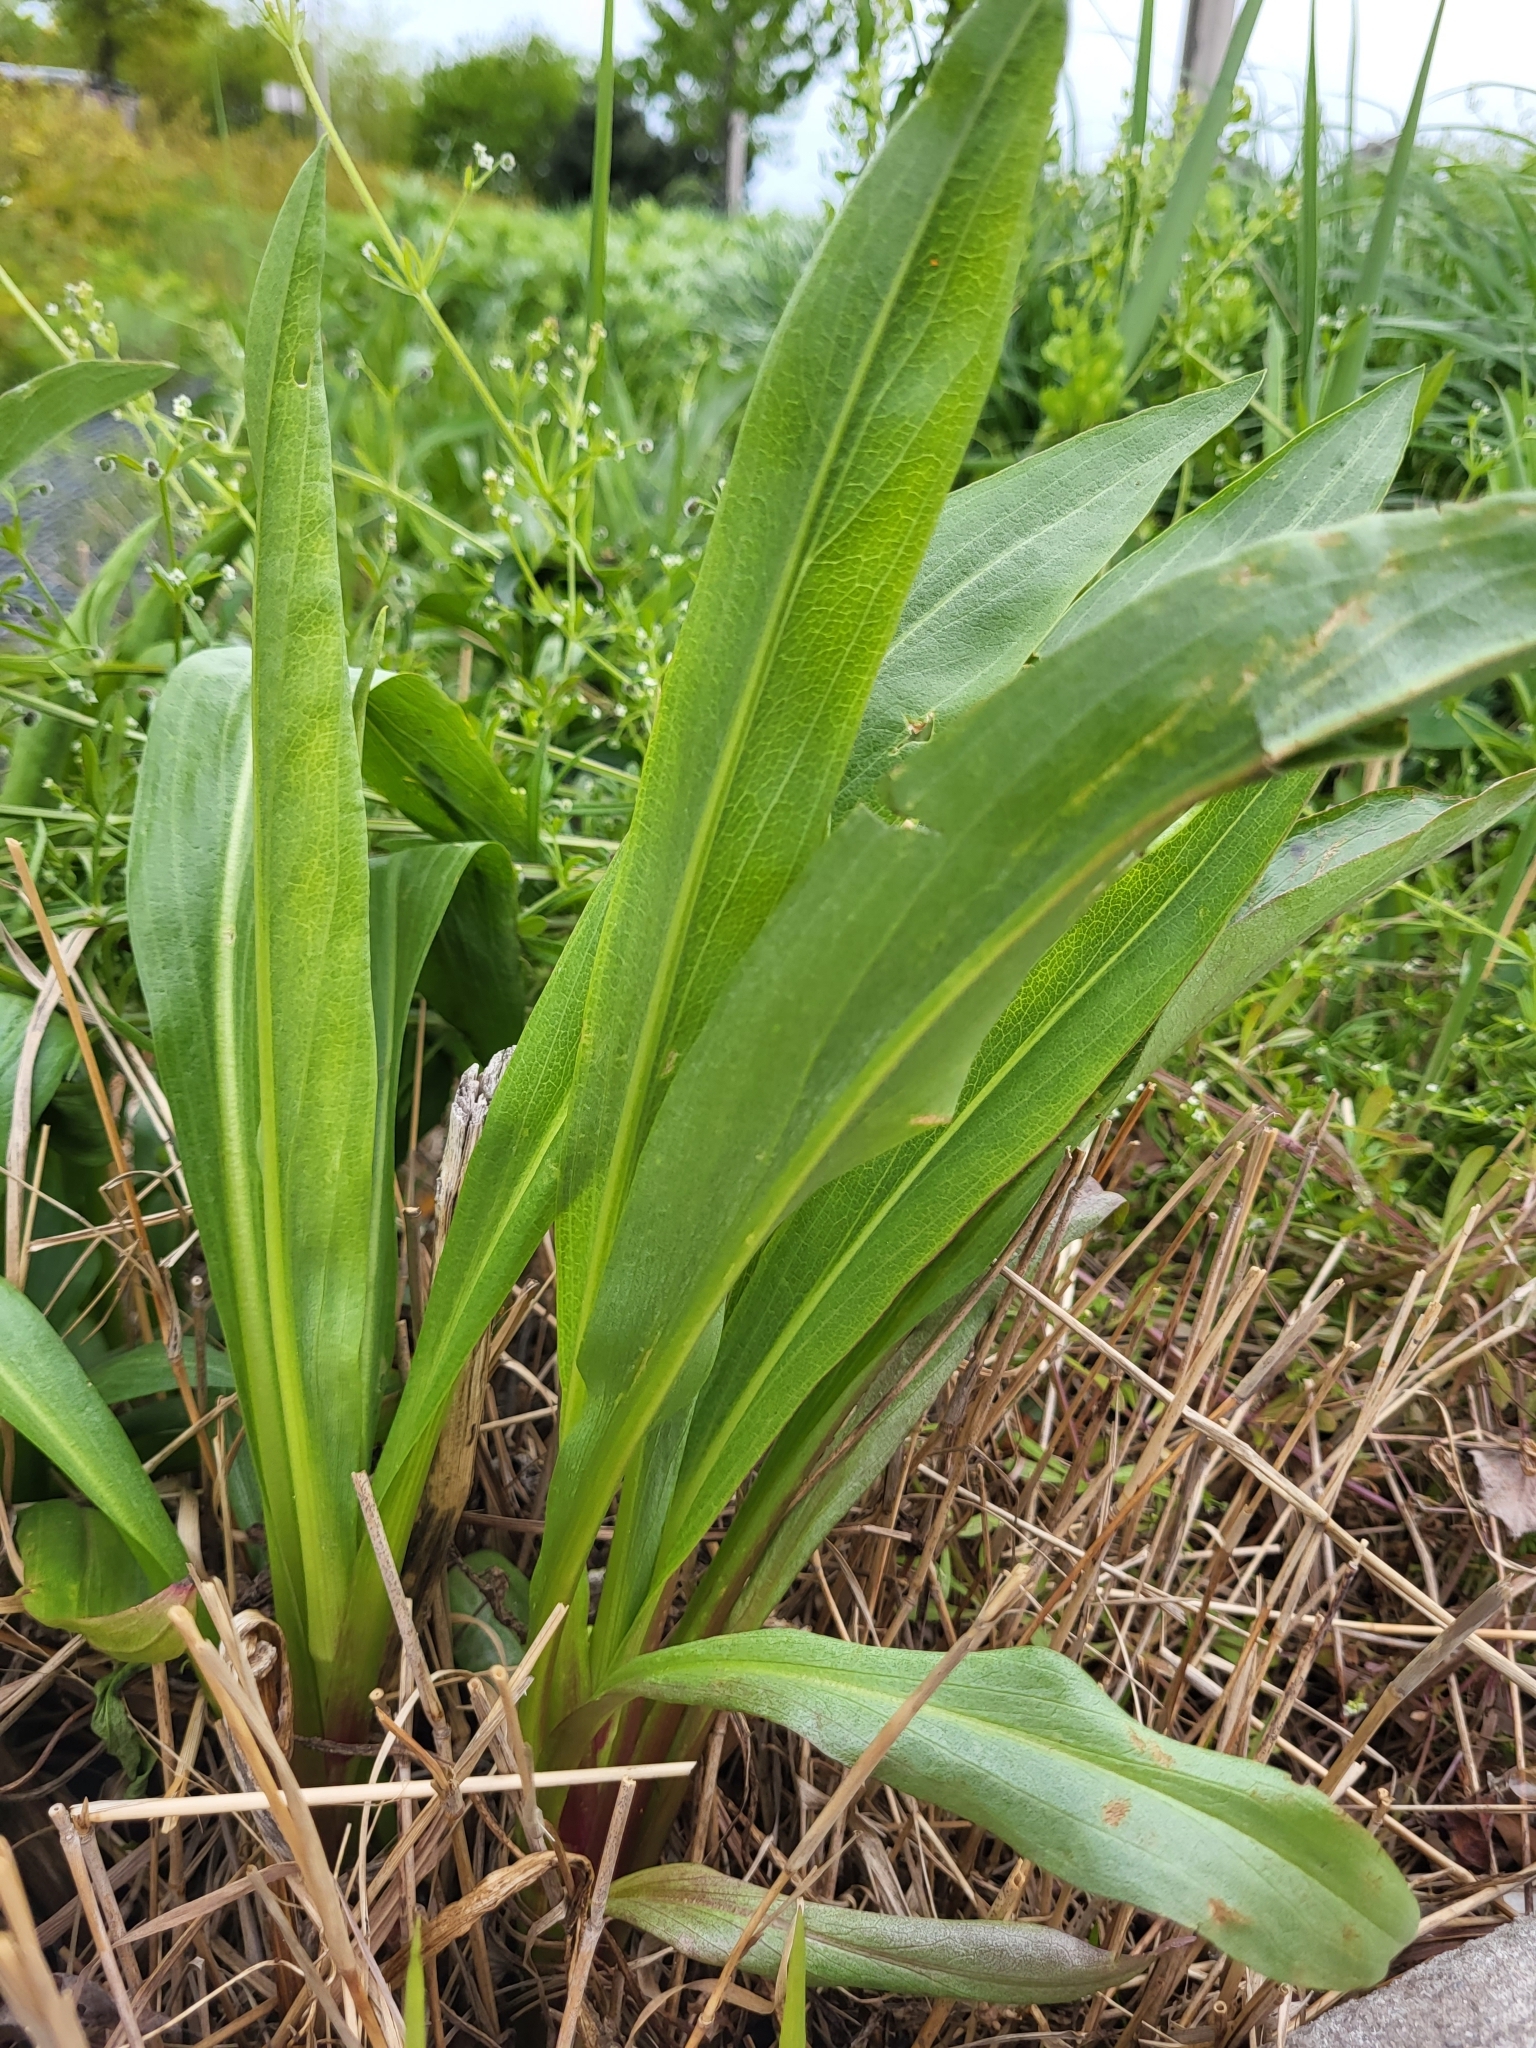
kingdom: Plantae
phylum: Tracheophyta
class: Magnoliopsida
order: Asterales
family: Asteraceae
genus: Solidago
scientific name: Solidago sempervirens
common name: Salt-marsh goldenrod
